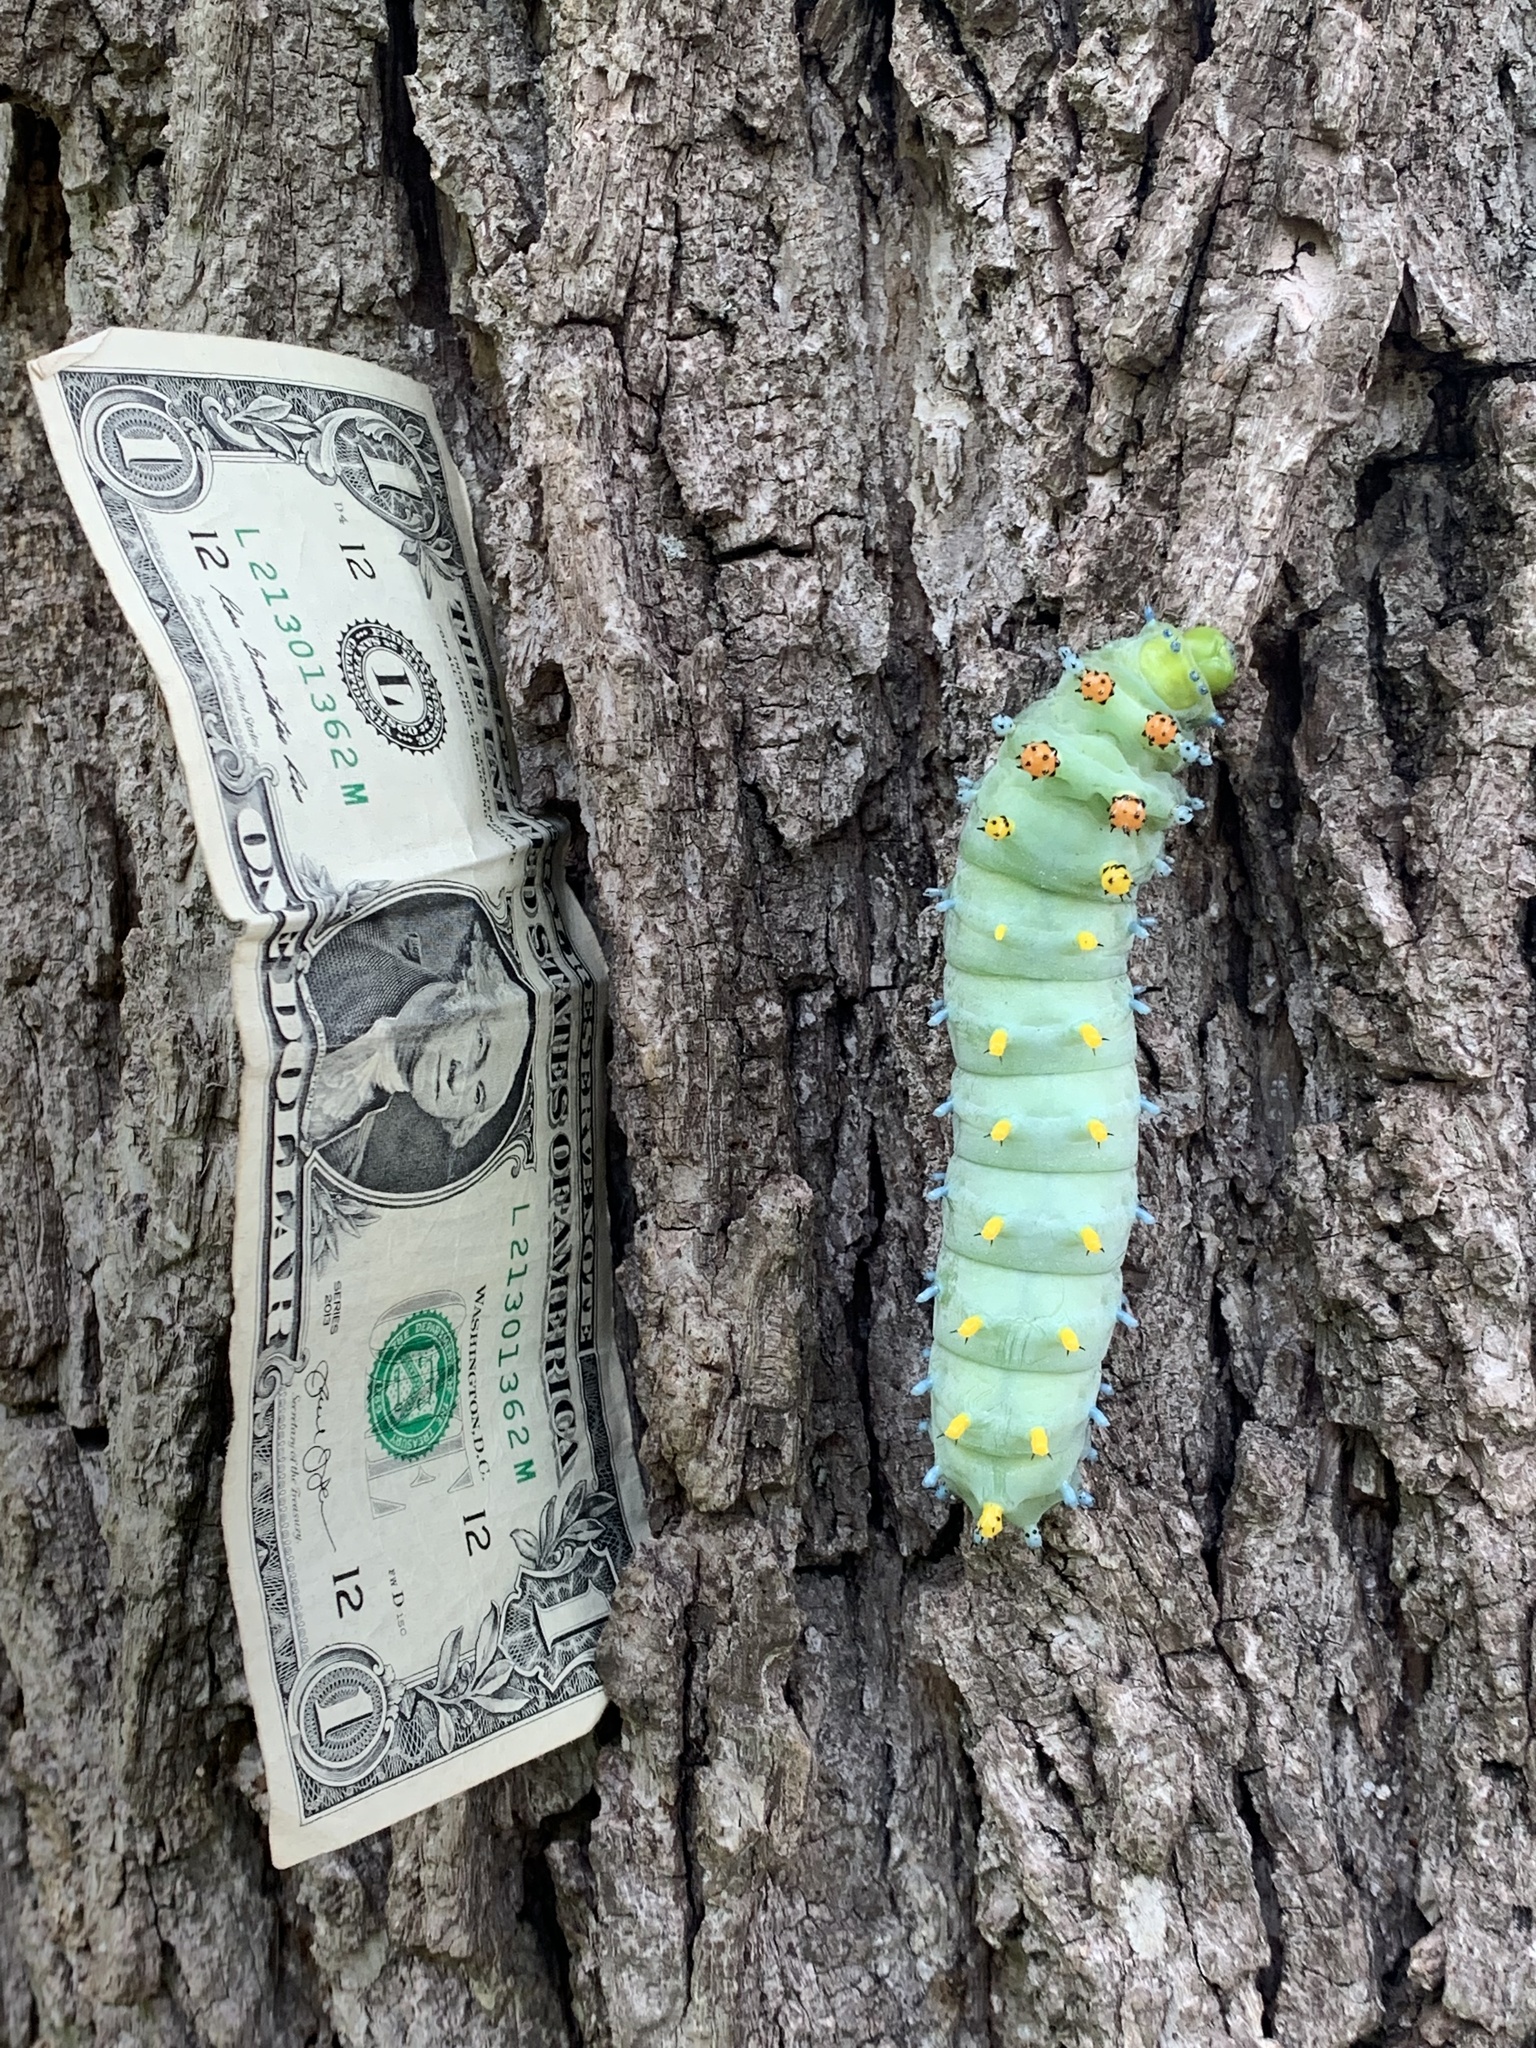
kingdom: Animalia
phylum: Arthropoda
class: Insecta
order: Lepidoptera
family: Saturniidae
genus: Hyalophora
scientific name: Hyalophora cecropia
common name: Cecropia silkmoth
